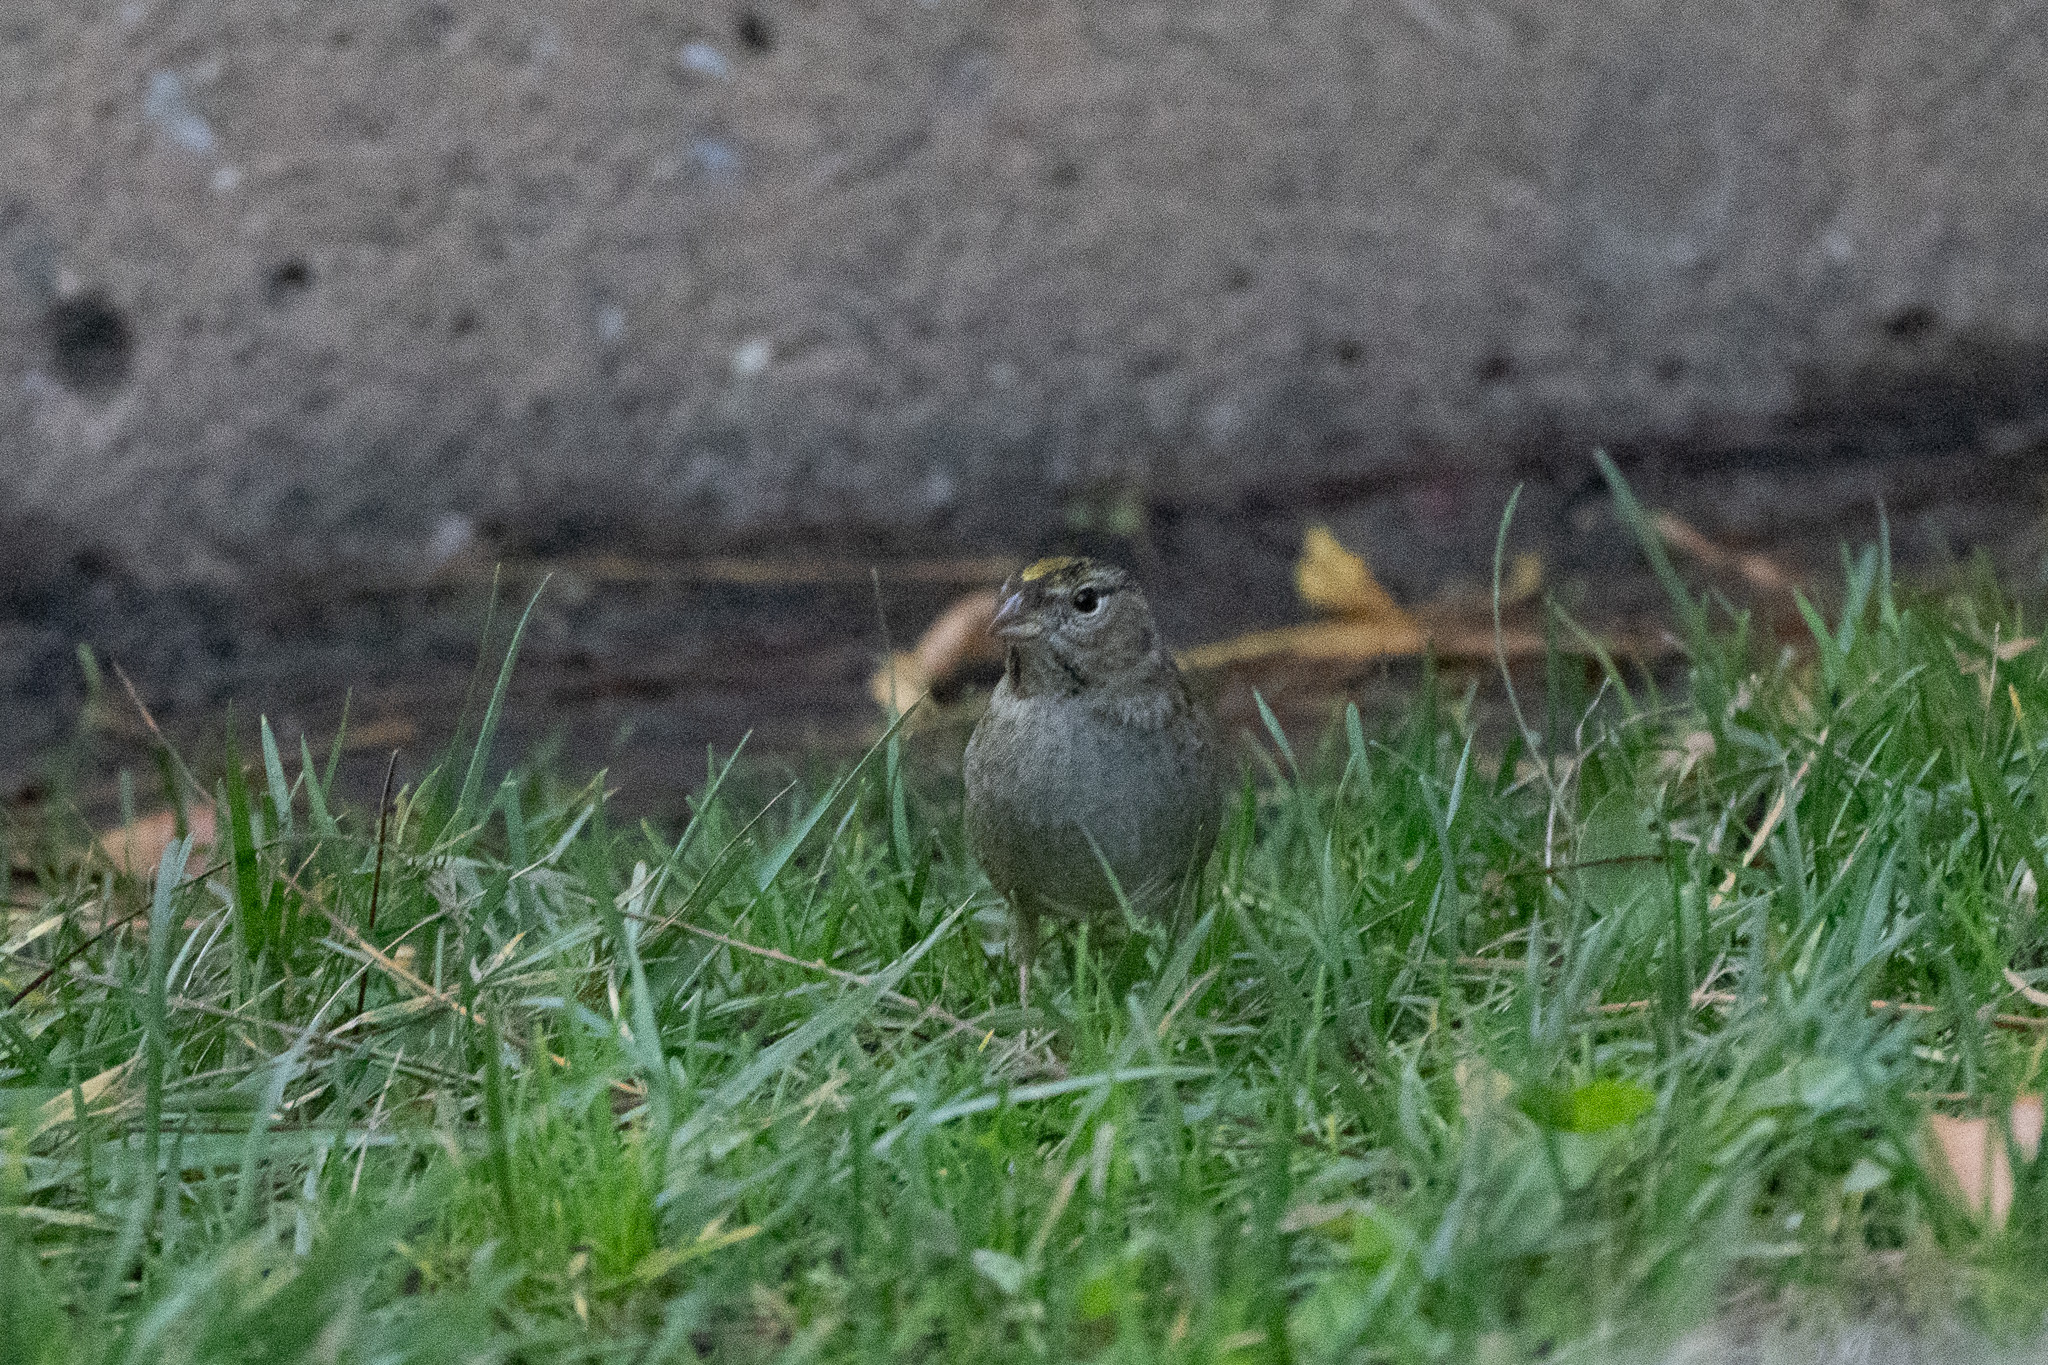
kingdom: Animalia
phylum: Chordata
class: Aves
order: Passeriformes
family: Passerellidae
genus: Zonotrichia
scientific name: Zonotrichia atricapilla
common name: Golden-crowned sparrow
